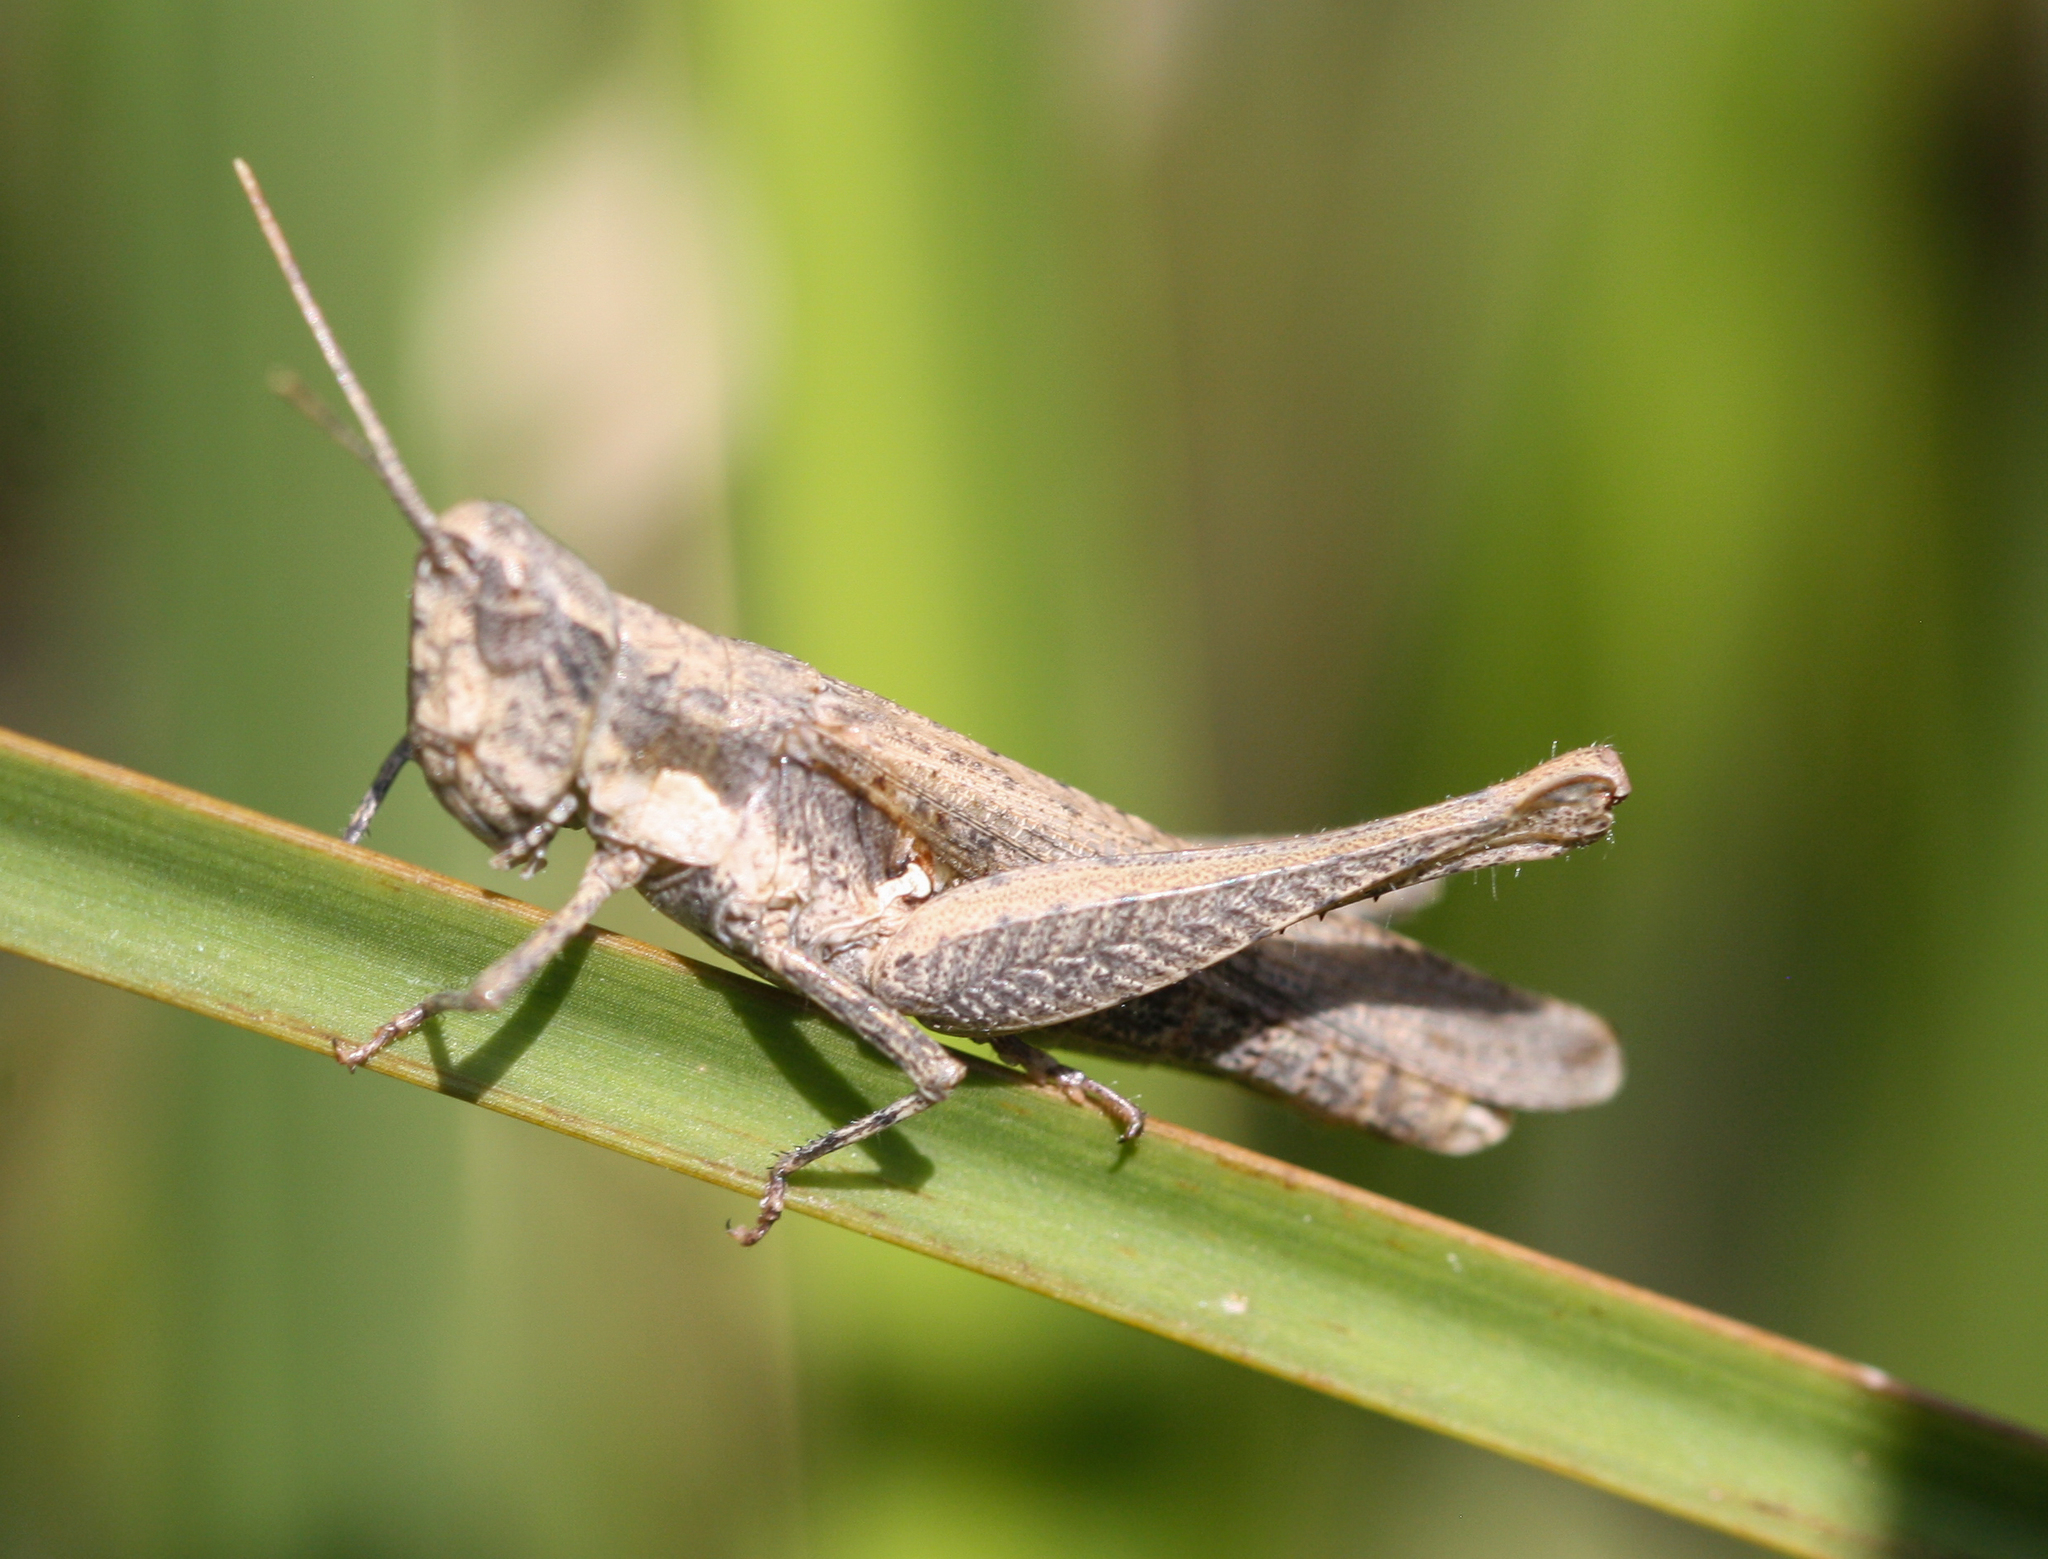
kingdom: Animalia
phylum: Arthropoda
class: Insecta
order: Orthoptera
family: Acrididae
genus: Horesidotes
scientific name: Horesidotes cinereus
